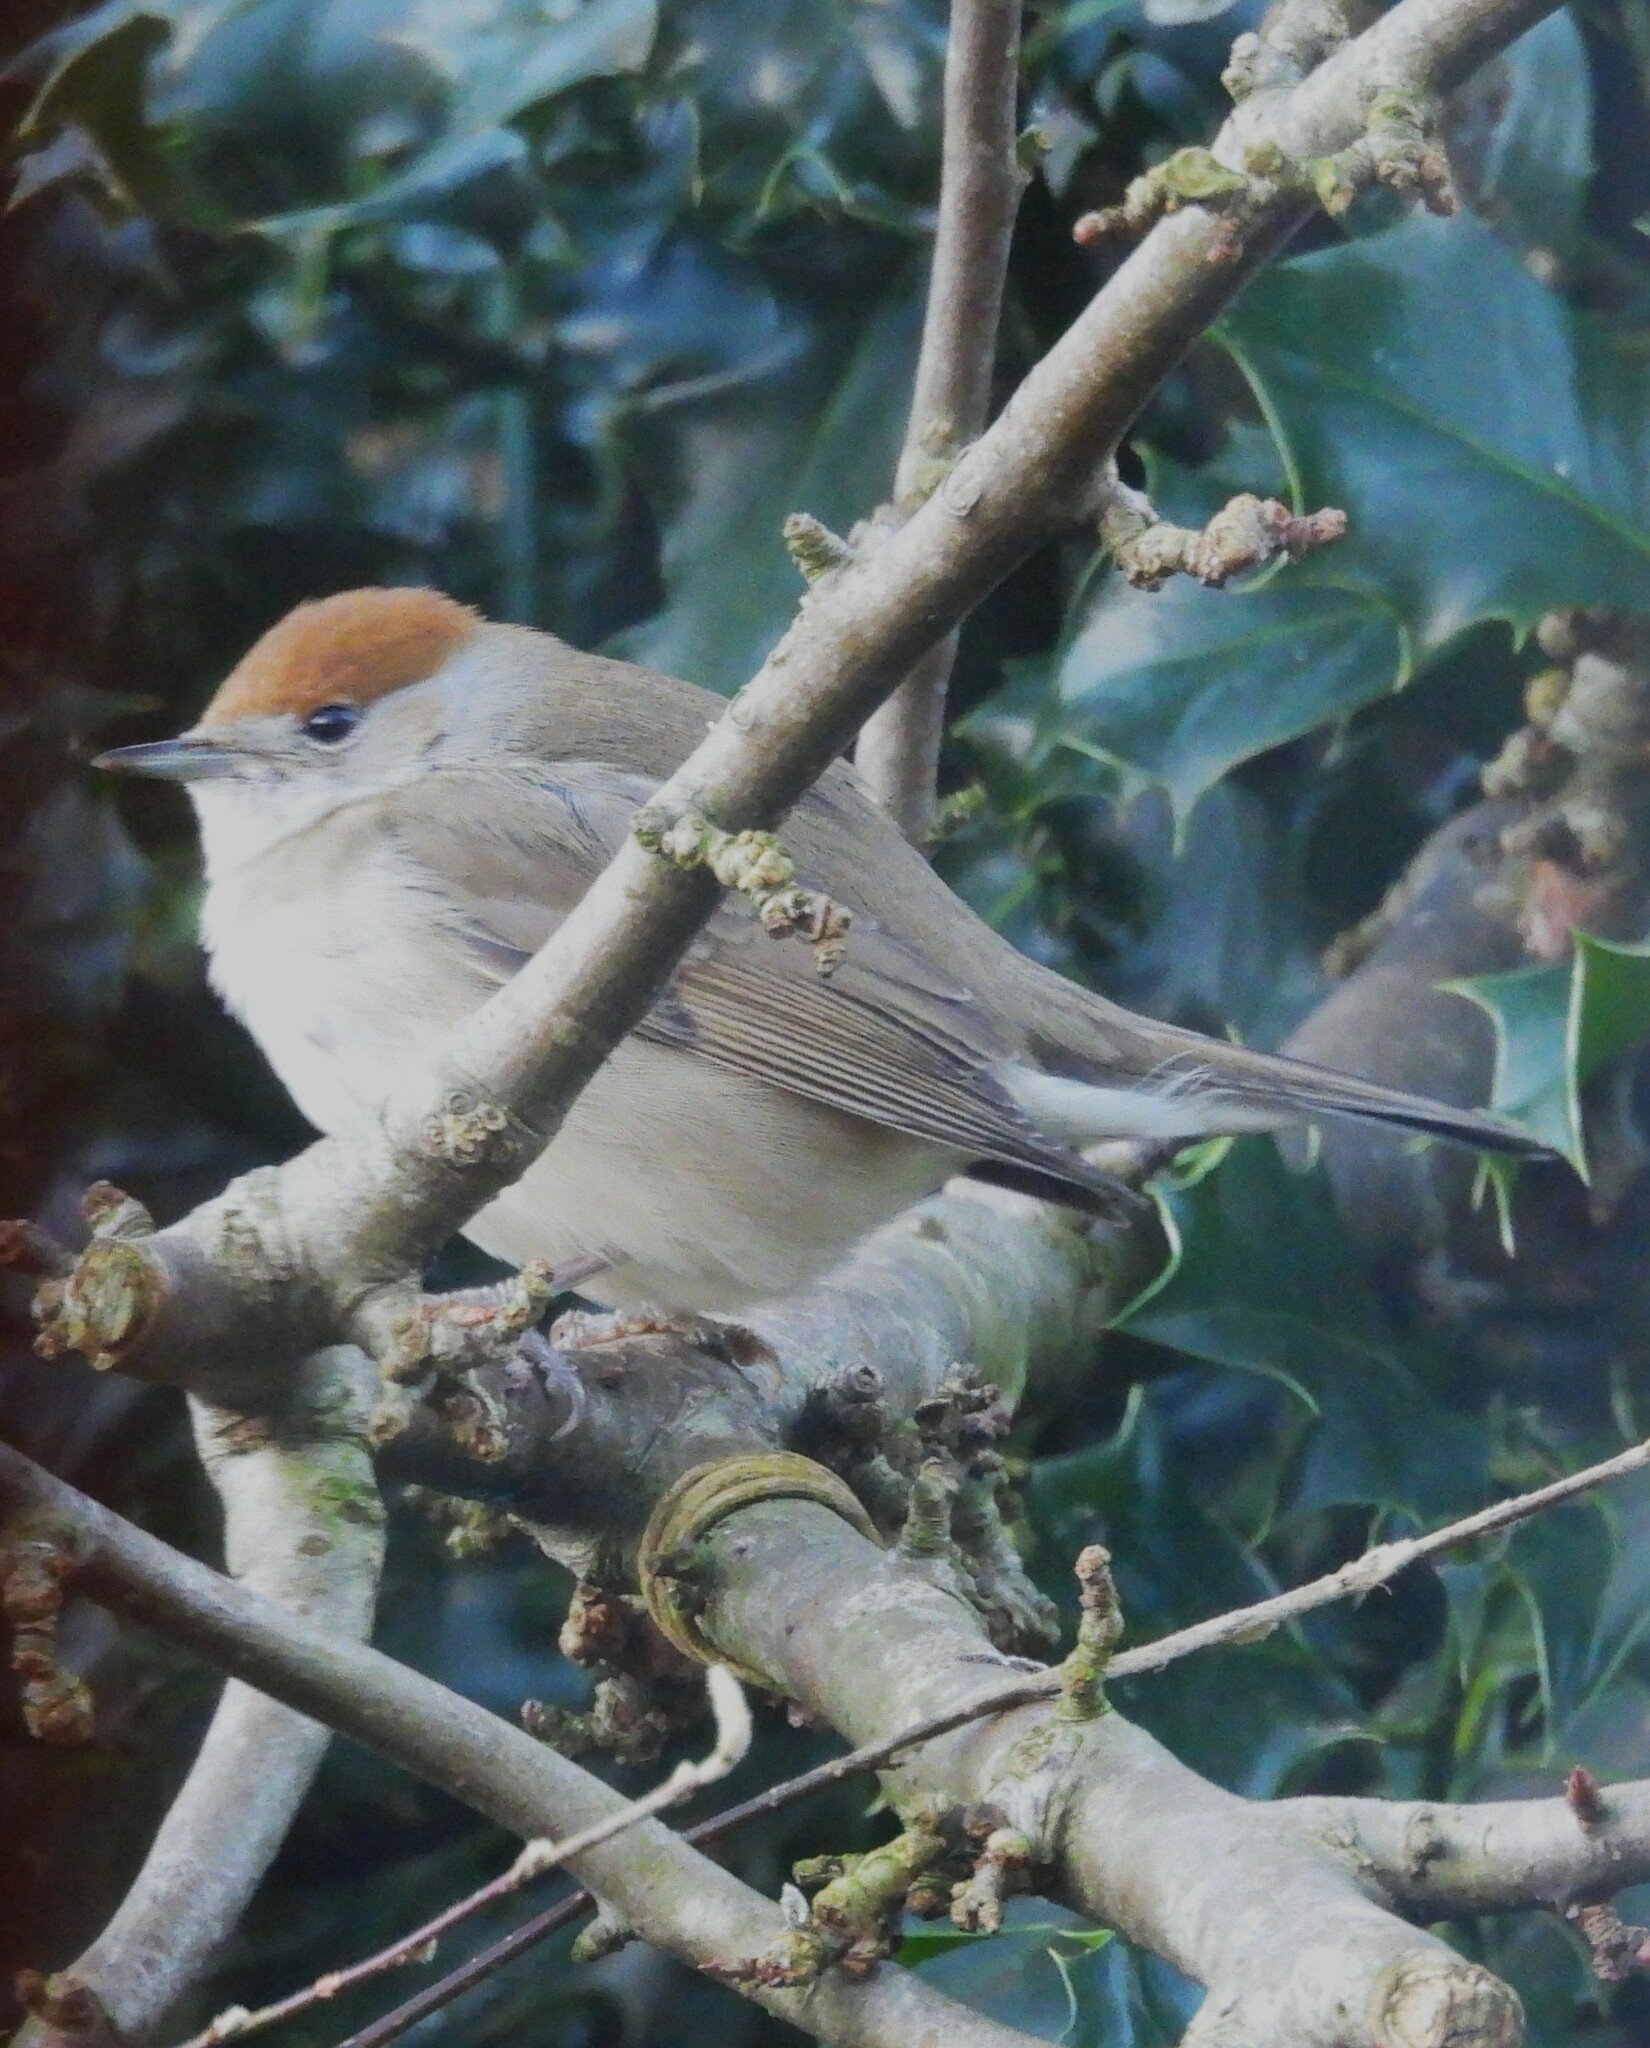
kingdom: Animalia
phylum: Chordata
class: Aves
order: Passeriformes
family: Sylviidae
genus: Sylvia
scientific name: Sylvia atricapilla
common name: Eurasian blackcap
